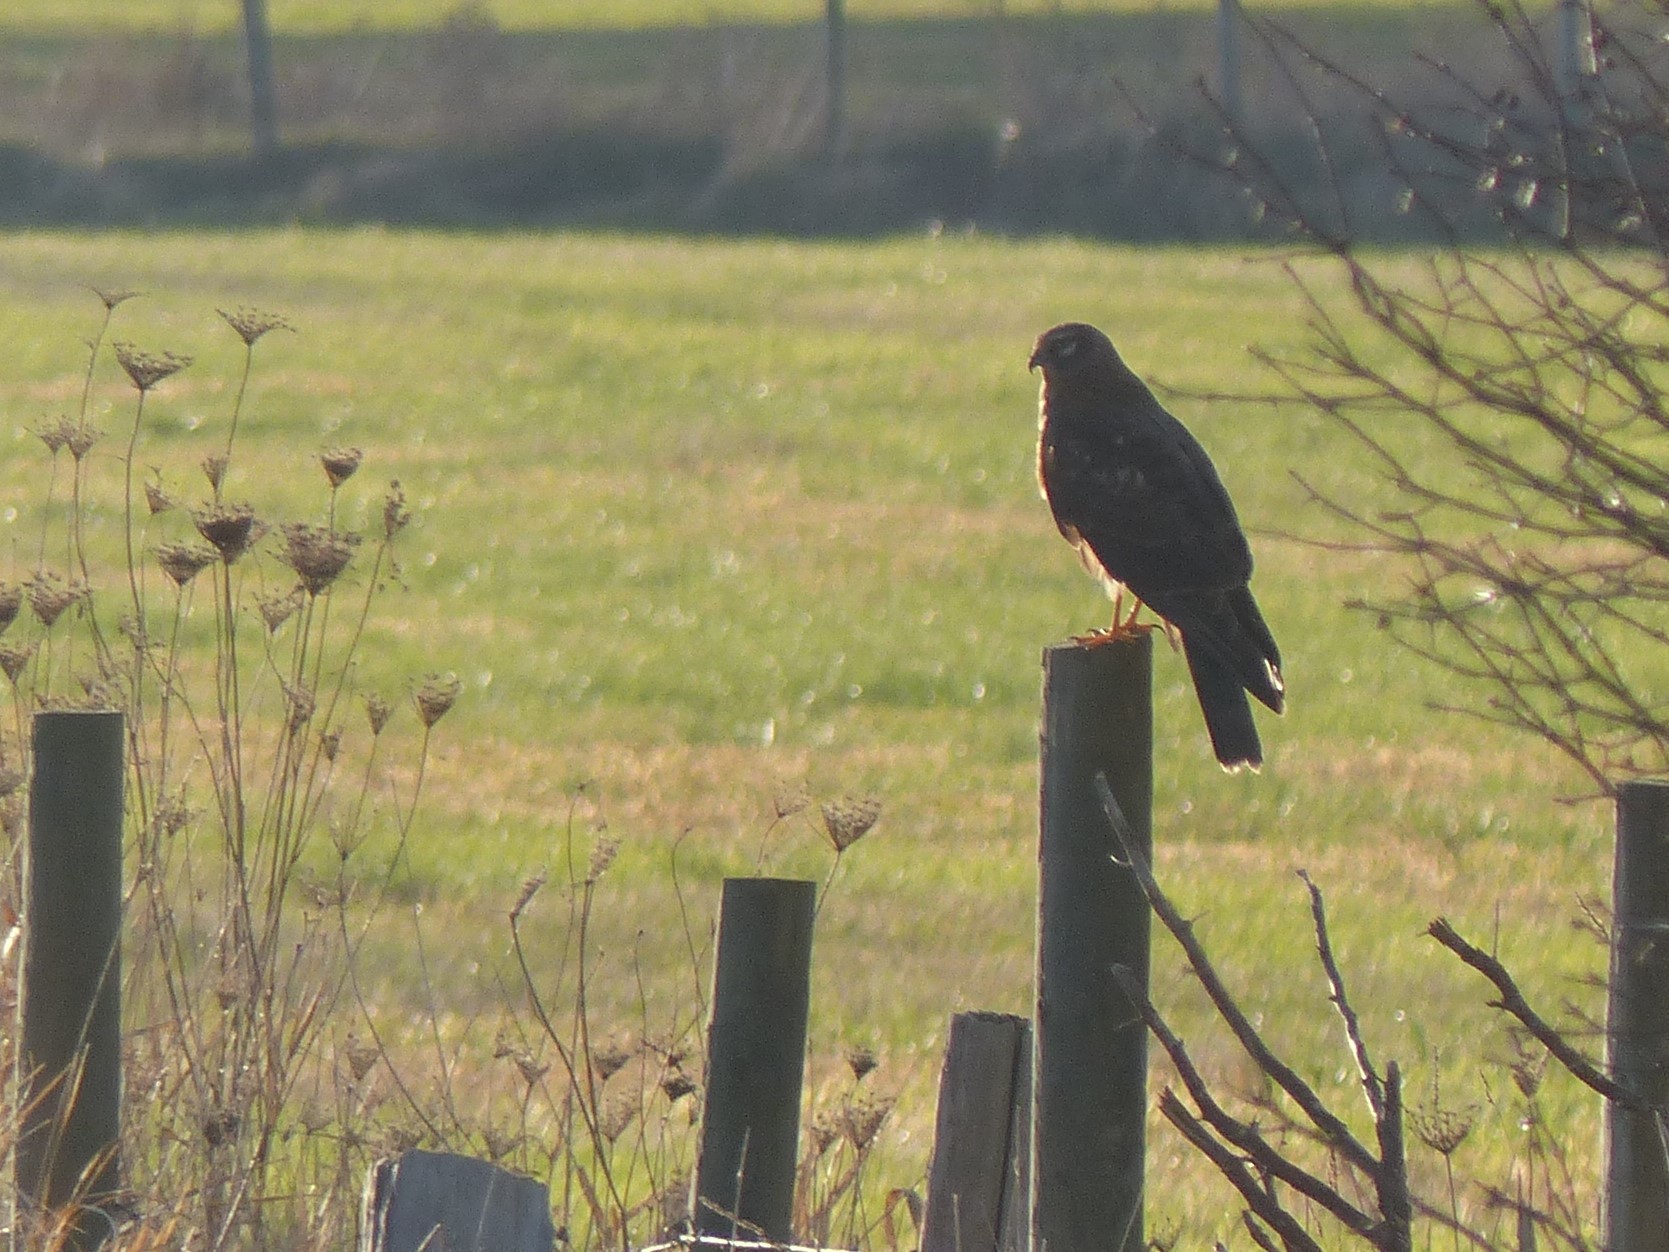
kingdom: Animalia
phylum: Chordata
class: Aves
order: Accipitriformes
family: Accipitridae
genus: Circus
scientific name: Circus cyaneus
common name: Hen harrier
